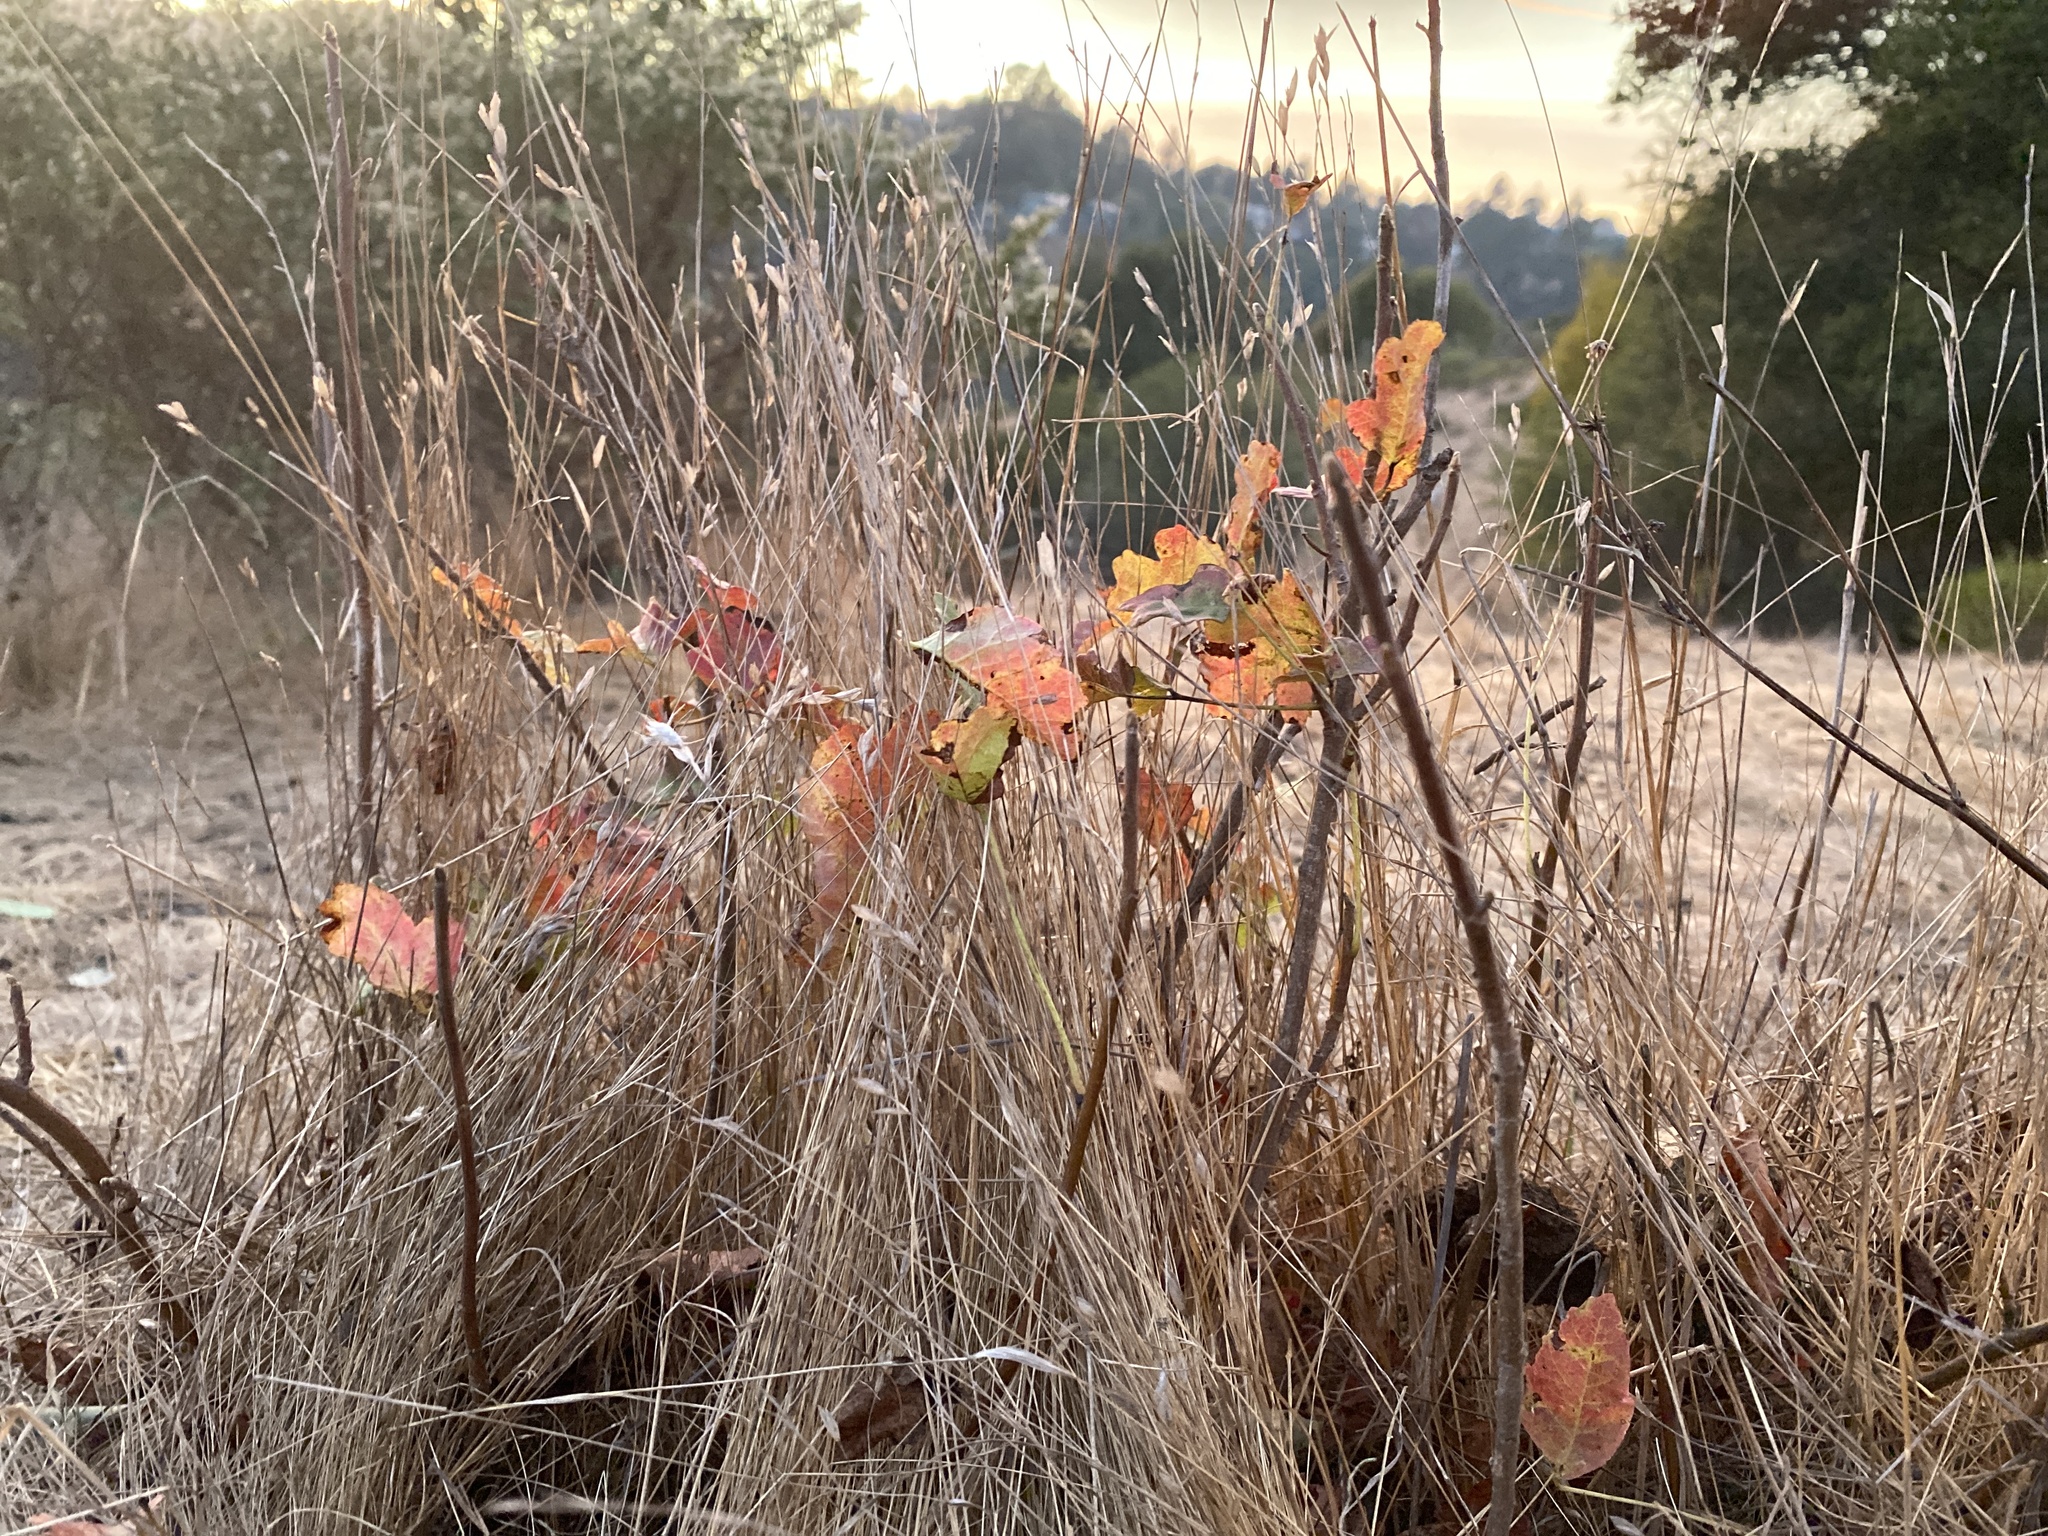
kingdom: Plantae
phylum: Tracheophyta
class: Magnoliopsida
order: Sapindales
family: Anacardiaceae
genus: Toxicodendron
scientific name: Toxicodendron diversilobum
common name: Pacific poison-oak
